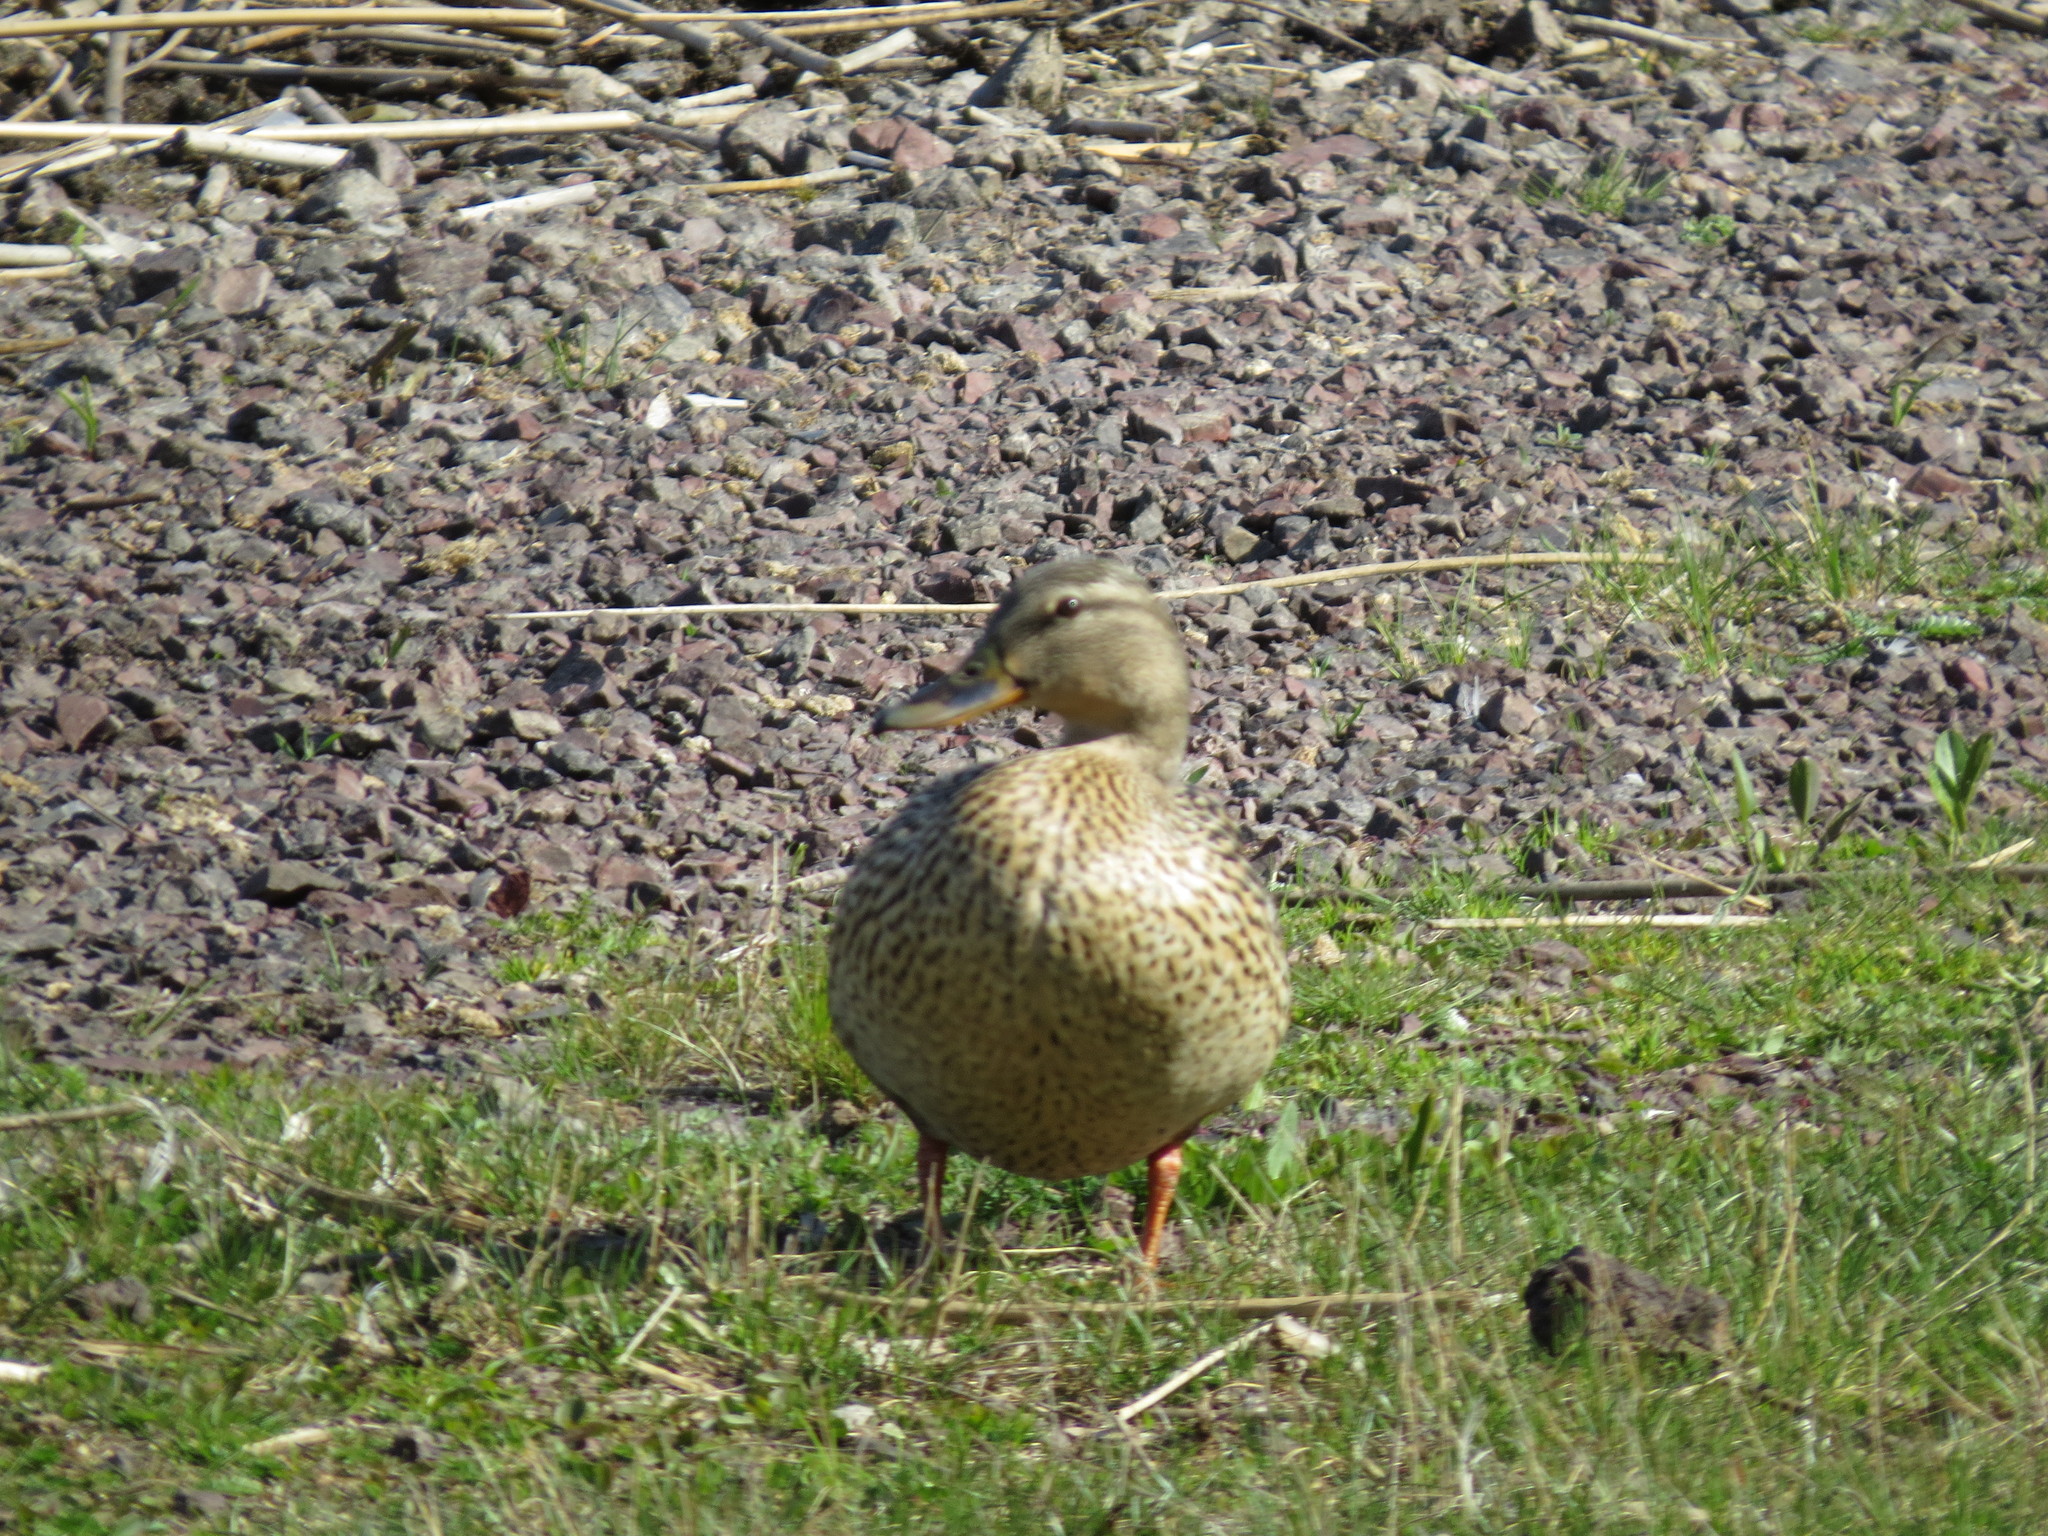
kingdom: Animalia
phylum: Chordata
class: Aves
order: Anseriformes
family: Anatidae
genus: Anas
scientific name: Anas platyrhynchos
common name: Mallard
